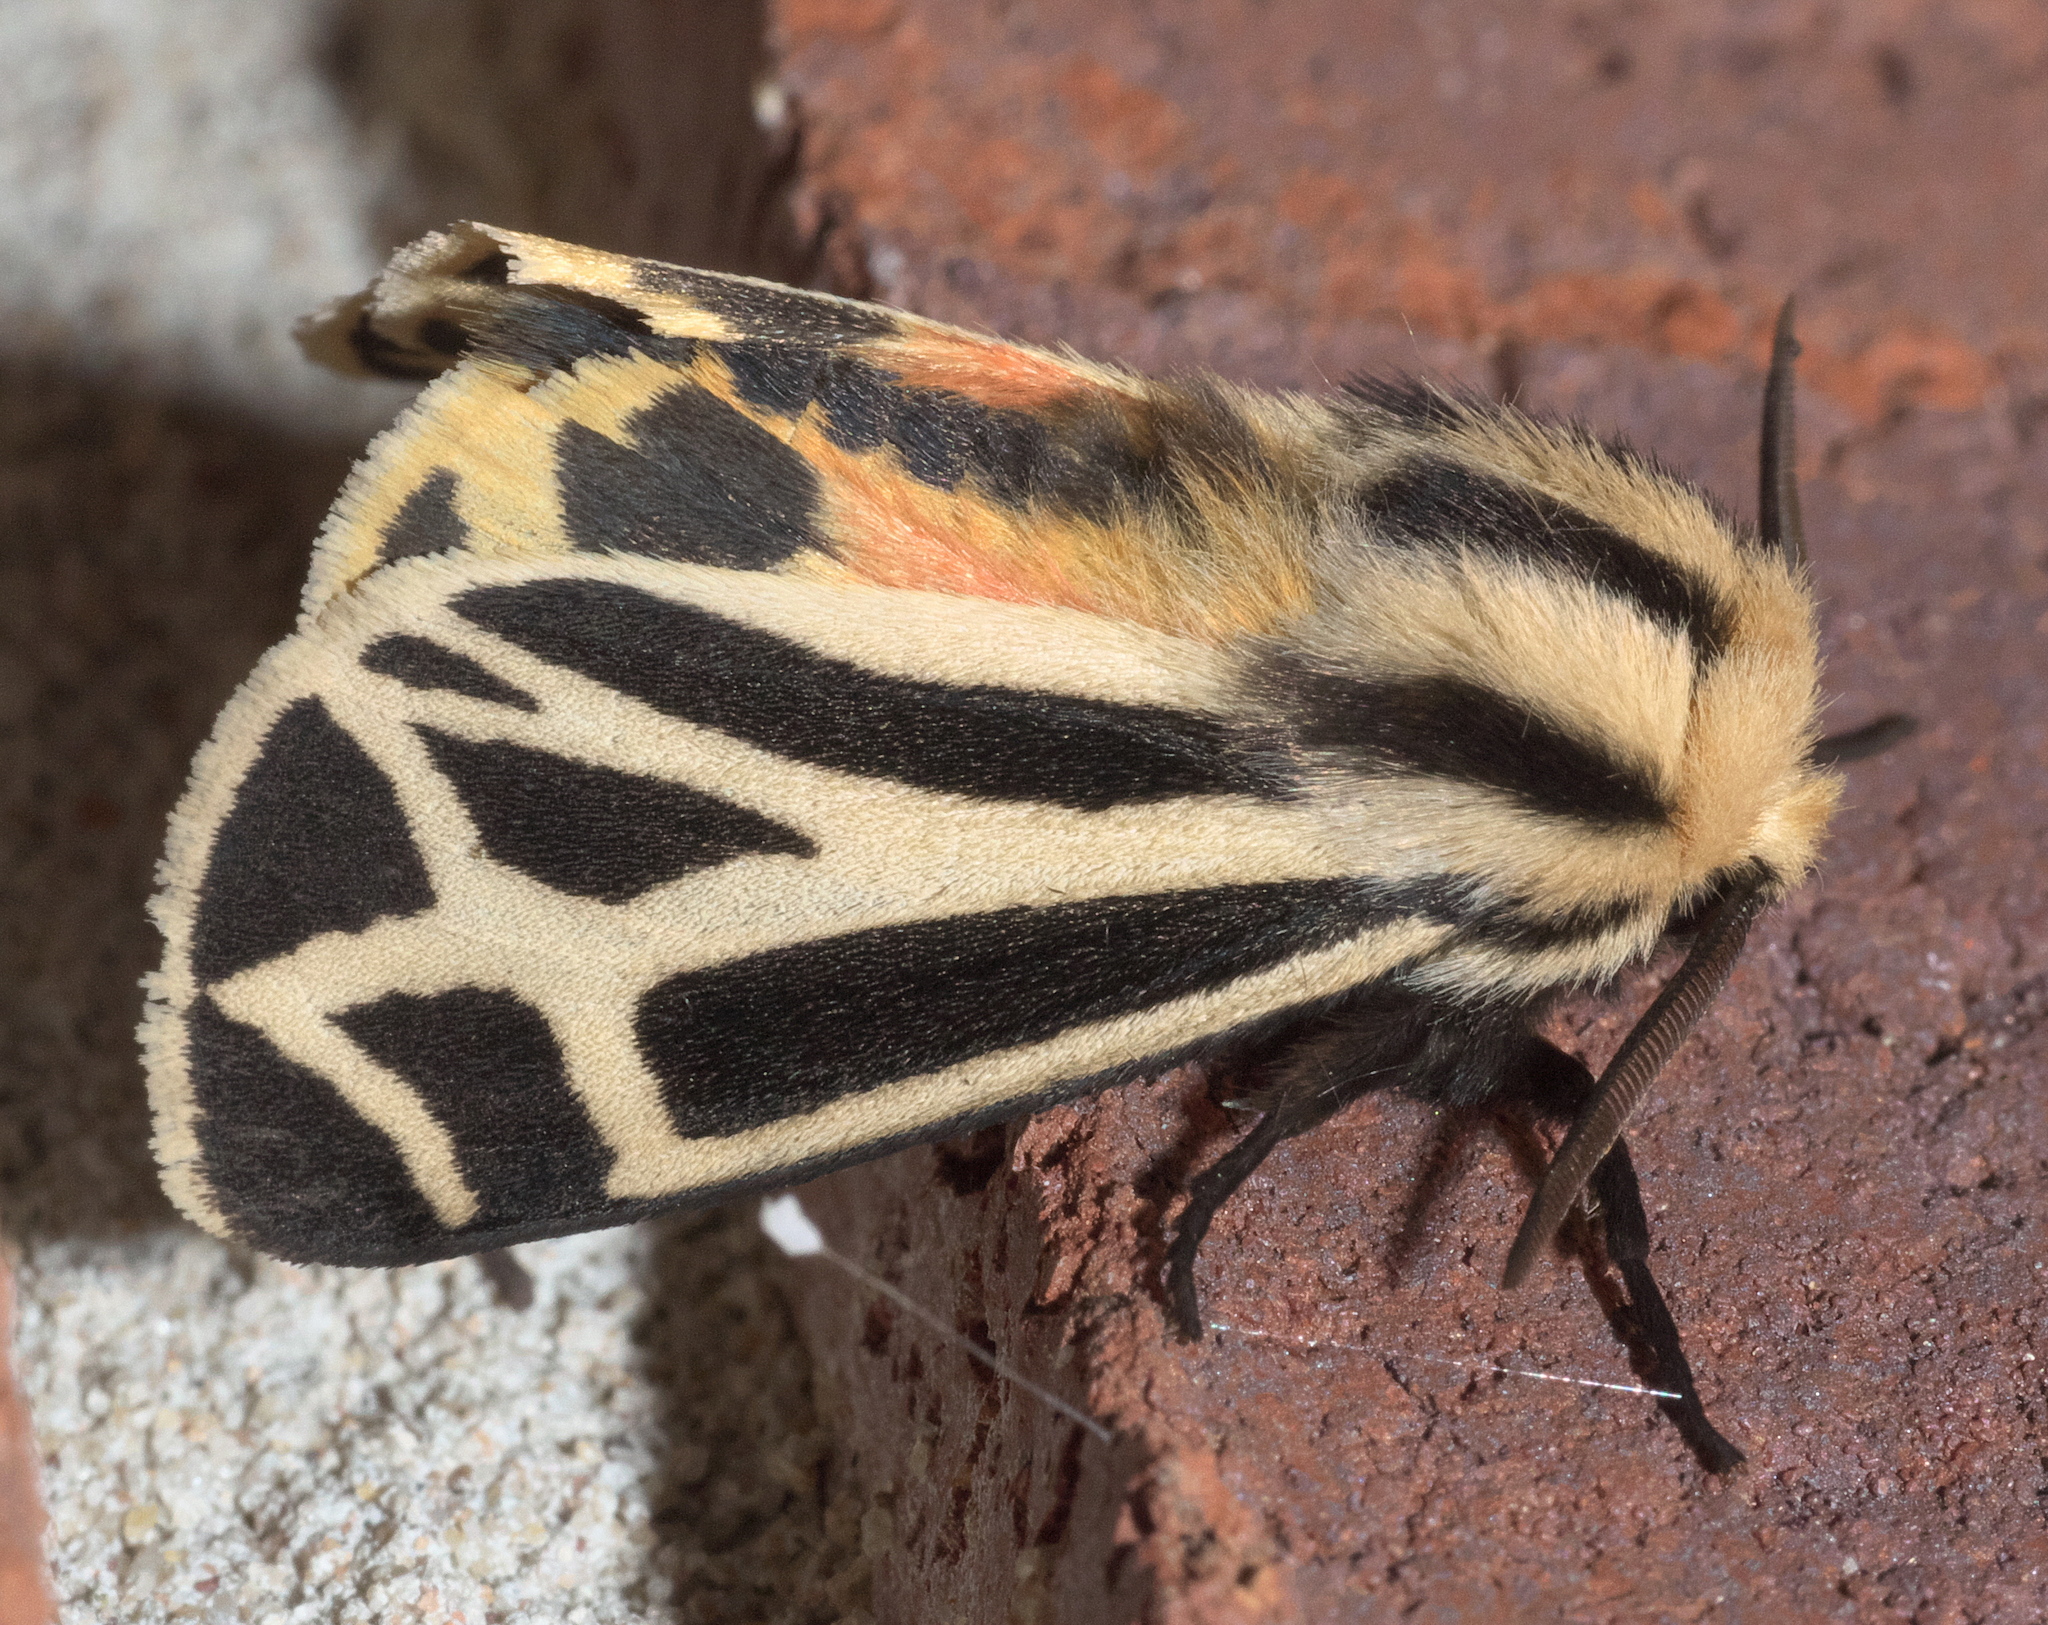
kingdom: Animalia
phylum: Arthropoda
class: Insecta
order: Lepidoptera
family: Erebidae
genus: Apantesis
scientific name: Apantesis carlotta
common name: Carlotta's tiger moth
